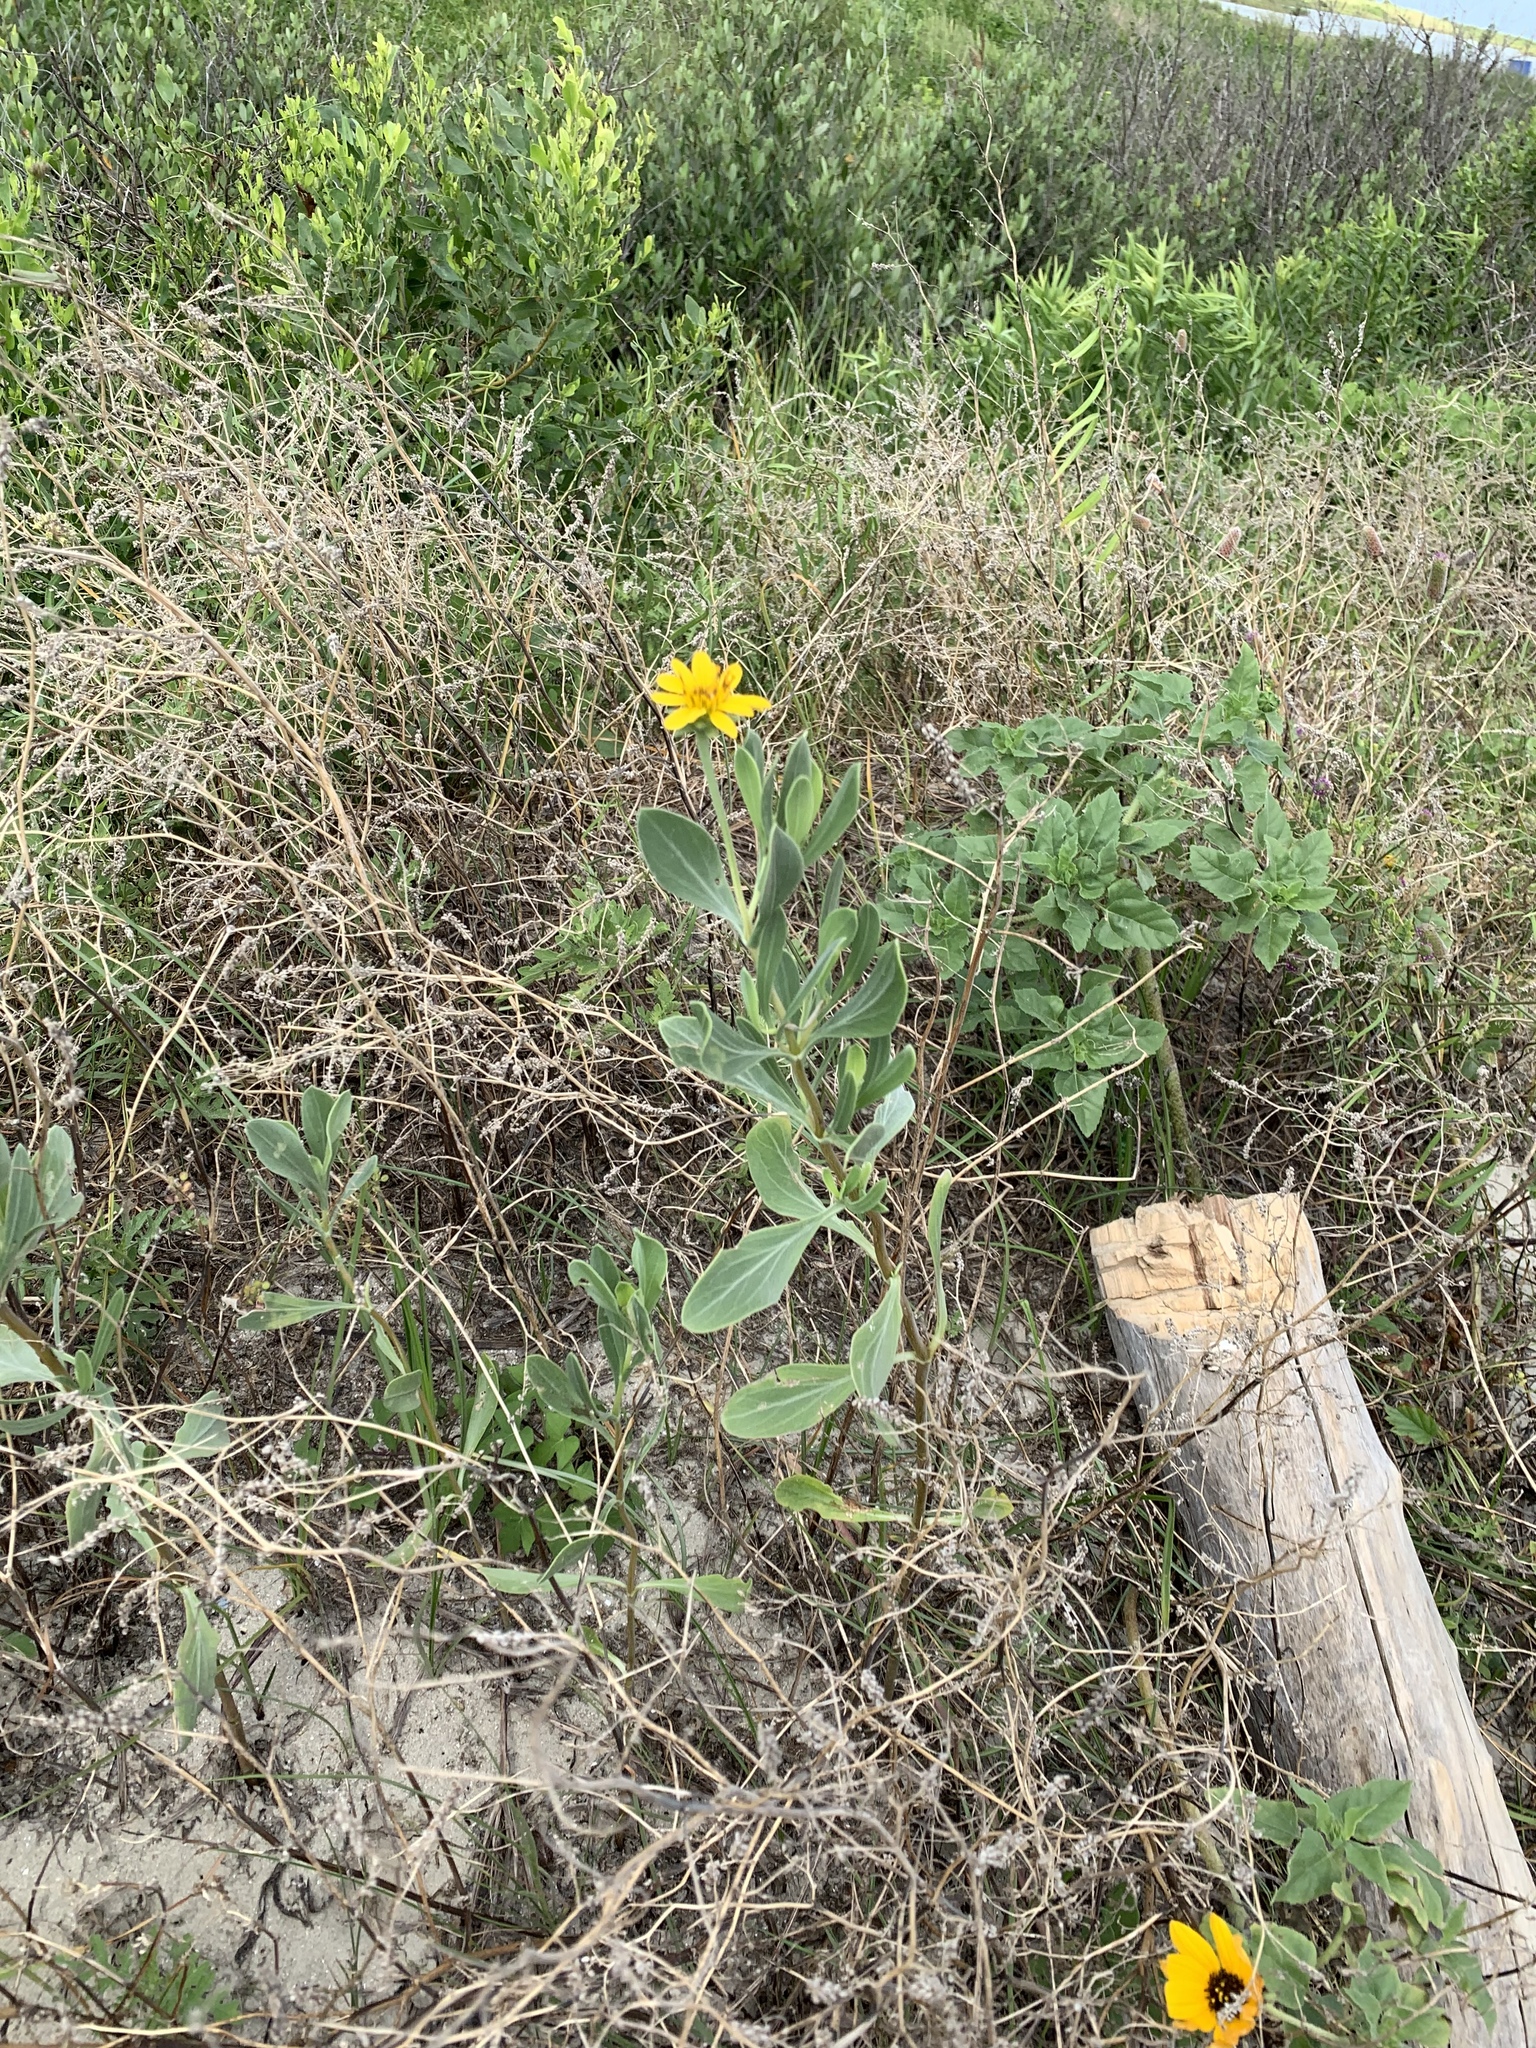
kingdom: Plantae
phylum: Tracheophyta
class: Magnoliopsida
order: Asterales
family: Asteraceae
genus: Borrichia
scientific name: Borrichia frutescens
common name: Sea oxeye
